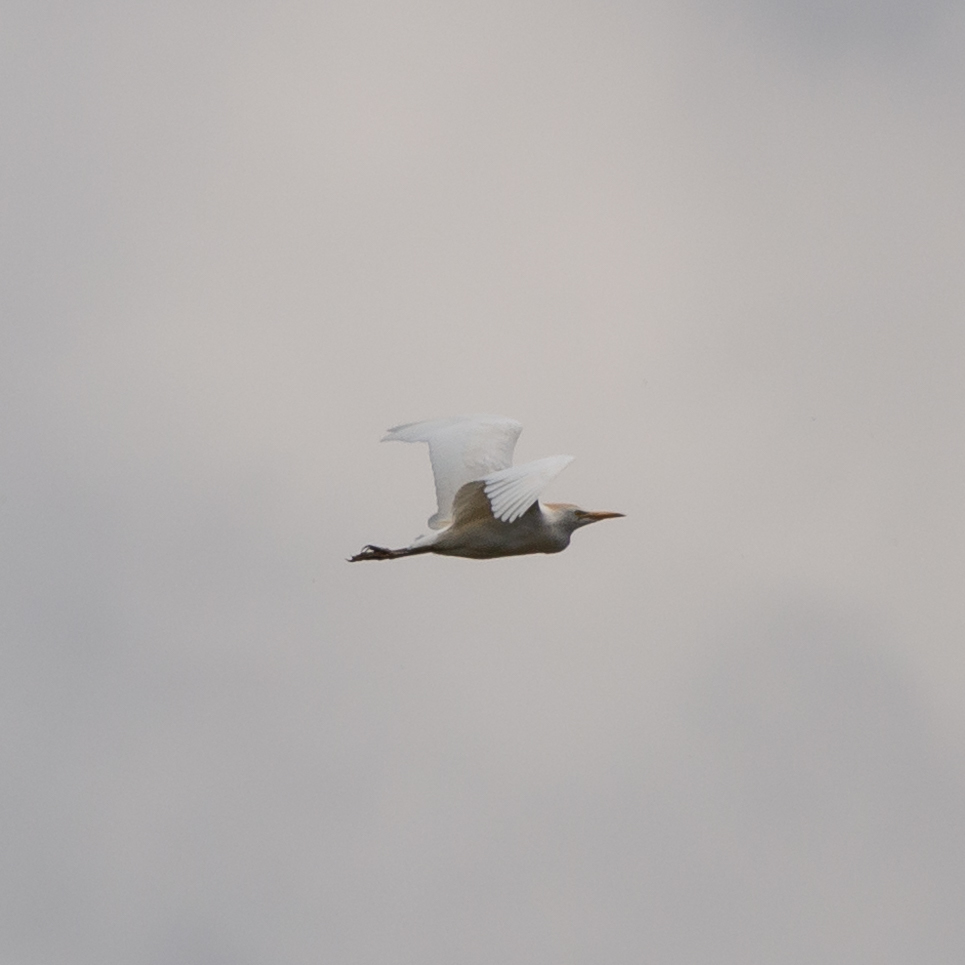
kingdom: Animalia
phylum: Chordata
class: Aves
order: Pelecaniformes
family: Ardeidae
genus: Bubulcus
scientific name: Bubulcus ibis
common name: Cattle egret
